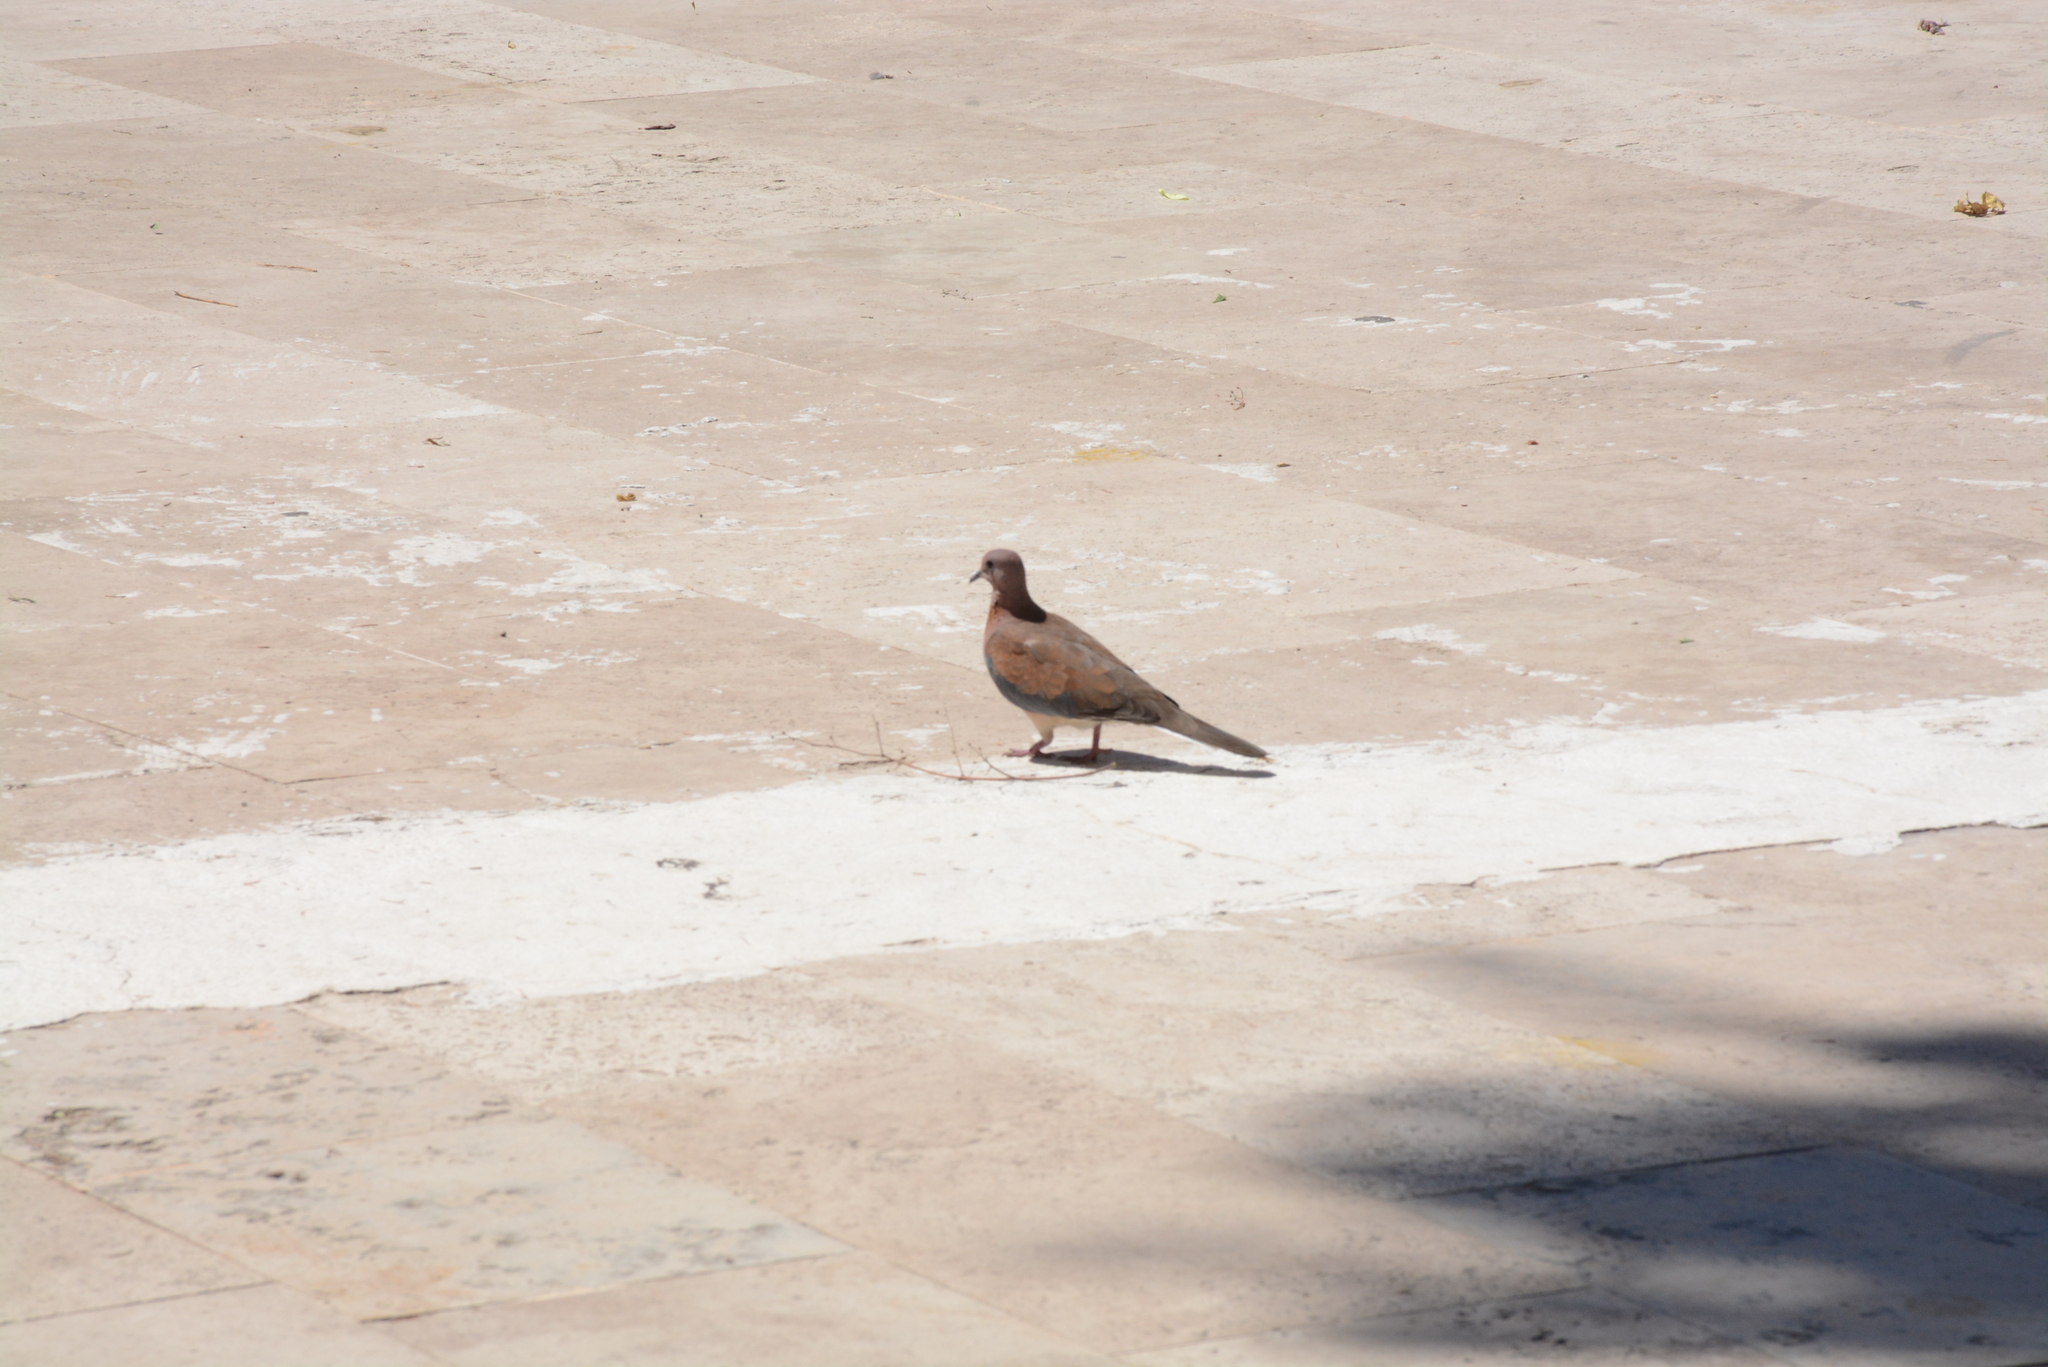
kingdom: Animalia
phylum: Chordata
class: Aves
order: Columbiformes
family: Columbidae
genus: Spilopelia
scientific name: Spilopelia senegalensis
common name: Laughing dove
